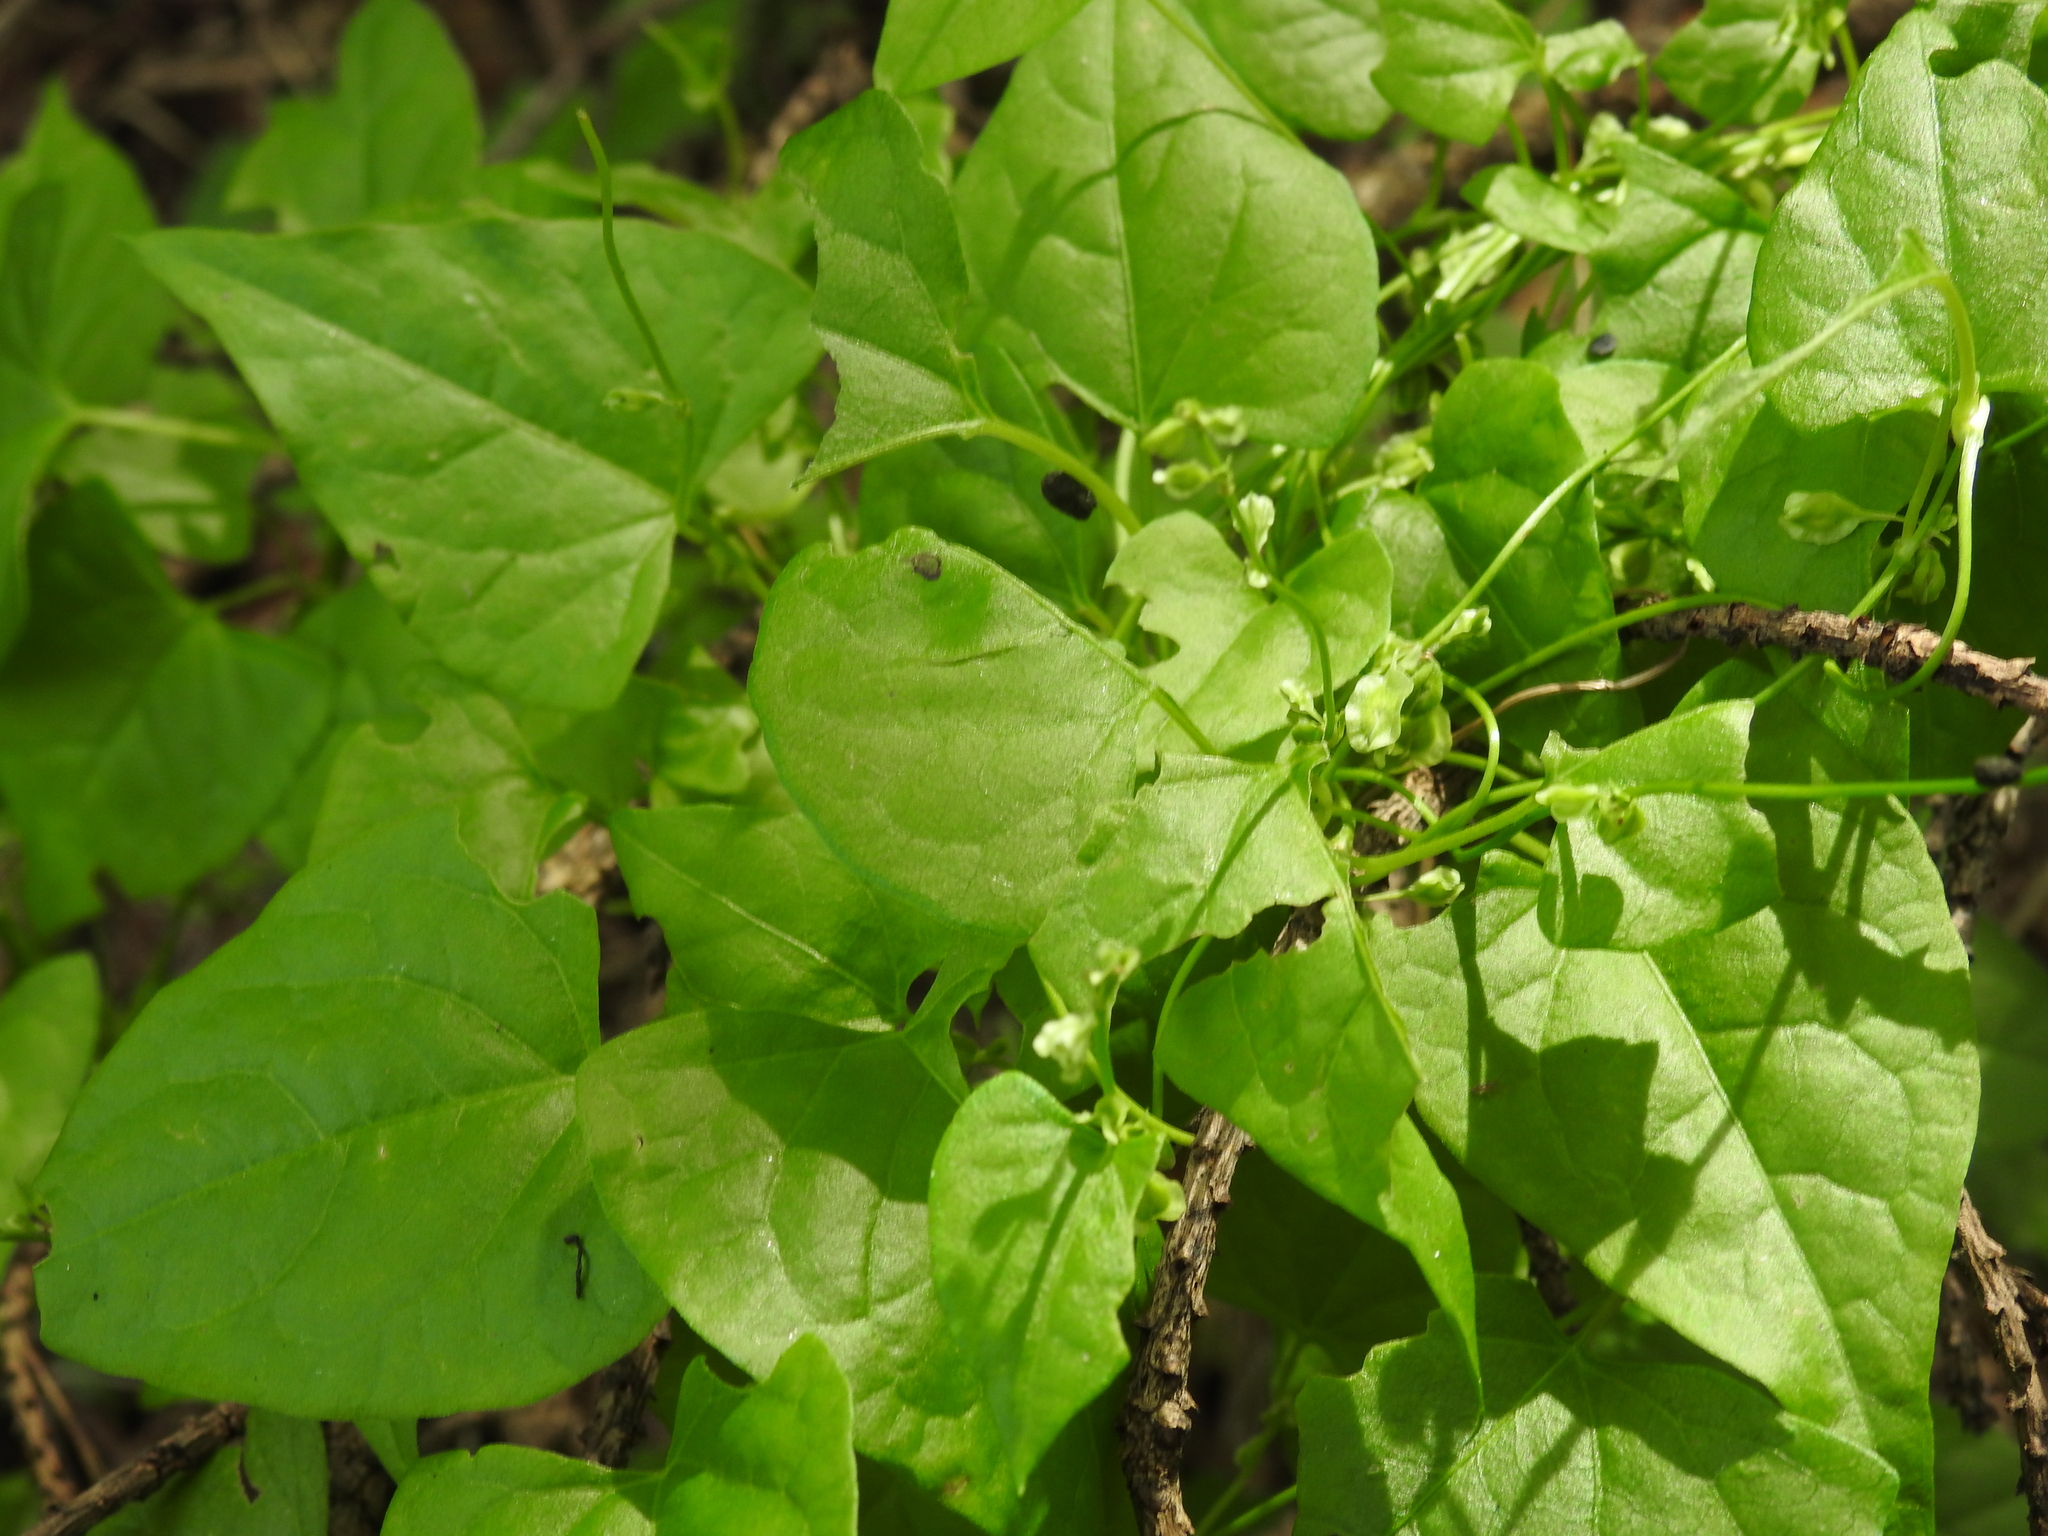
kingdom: Plantae
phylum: Tracheophyta
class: Magnoliopsida
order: Caryophyllales
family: Polygonaceae
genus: Fallopia
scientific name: Fallopia dumetorum
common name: Copse-bindweed
